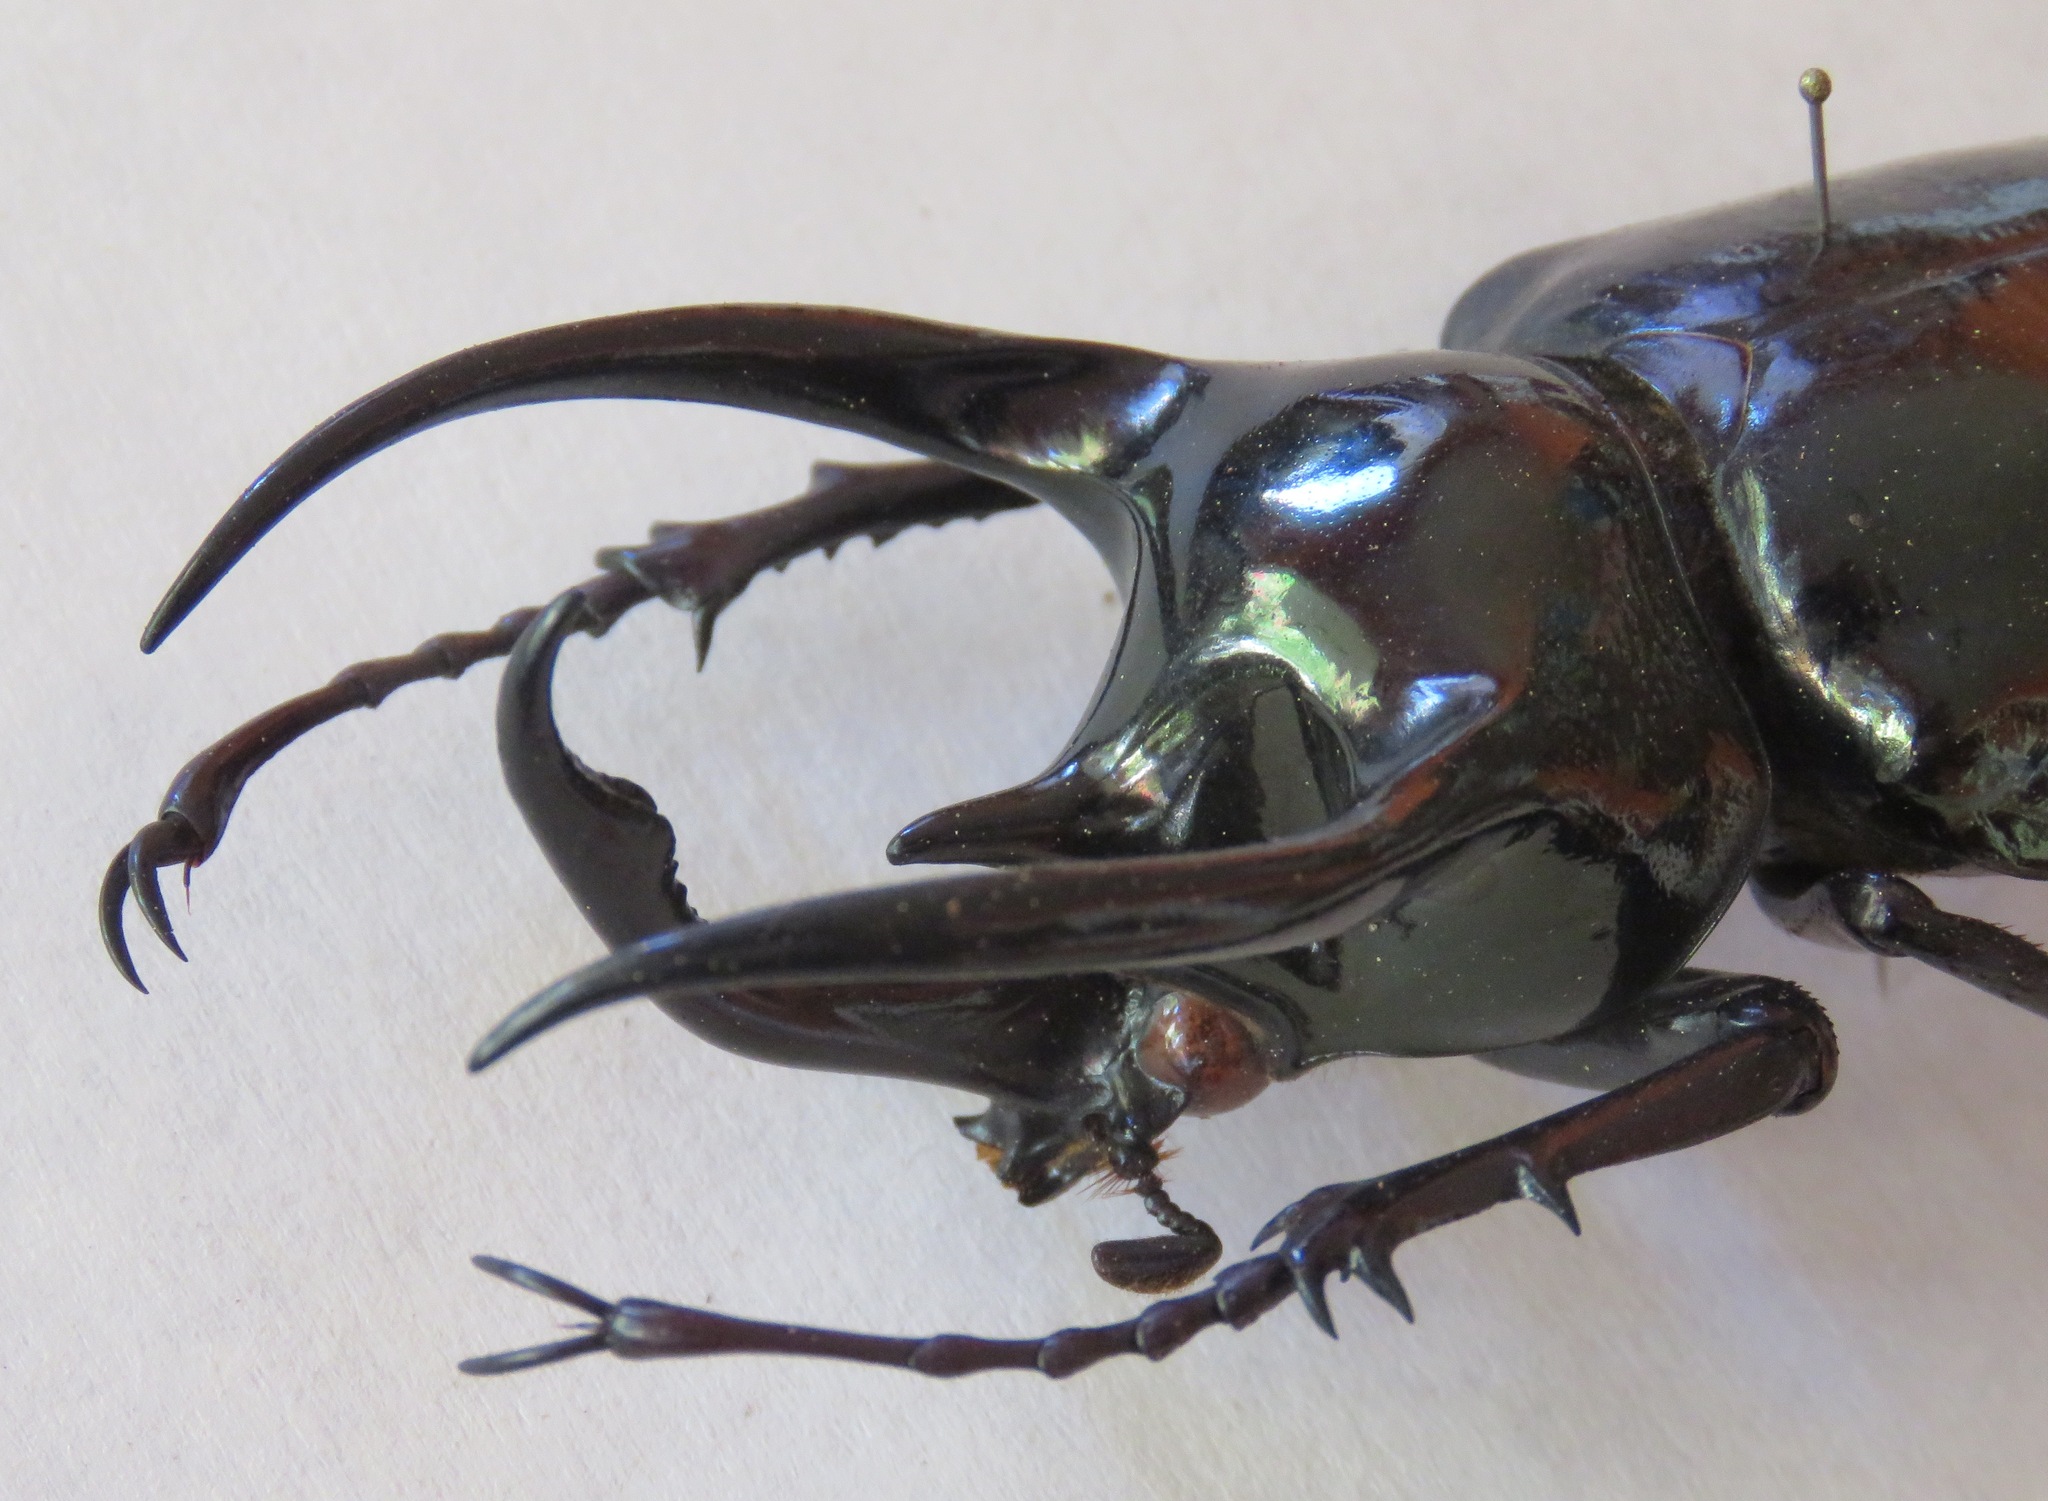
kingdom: Animalia
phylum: Arthropoda
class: Insecta
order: Coleoptera
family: Scarabaeidae
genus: Chalcosoma
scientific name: Chalcosoma atlas
